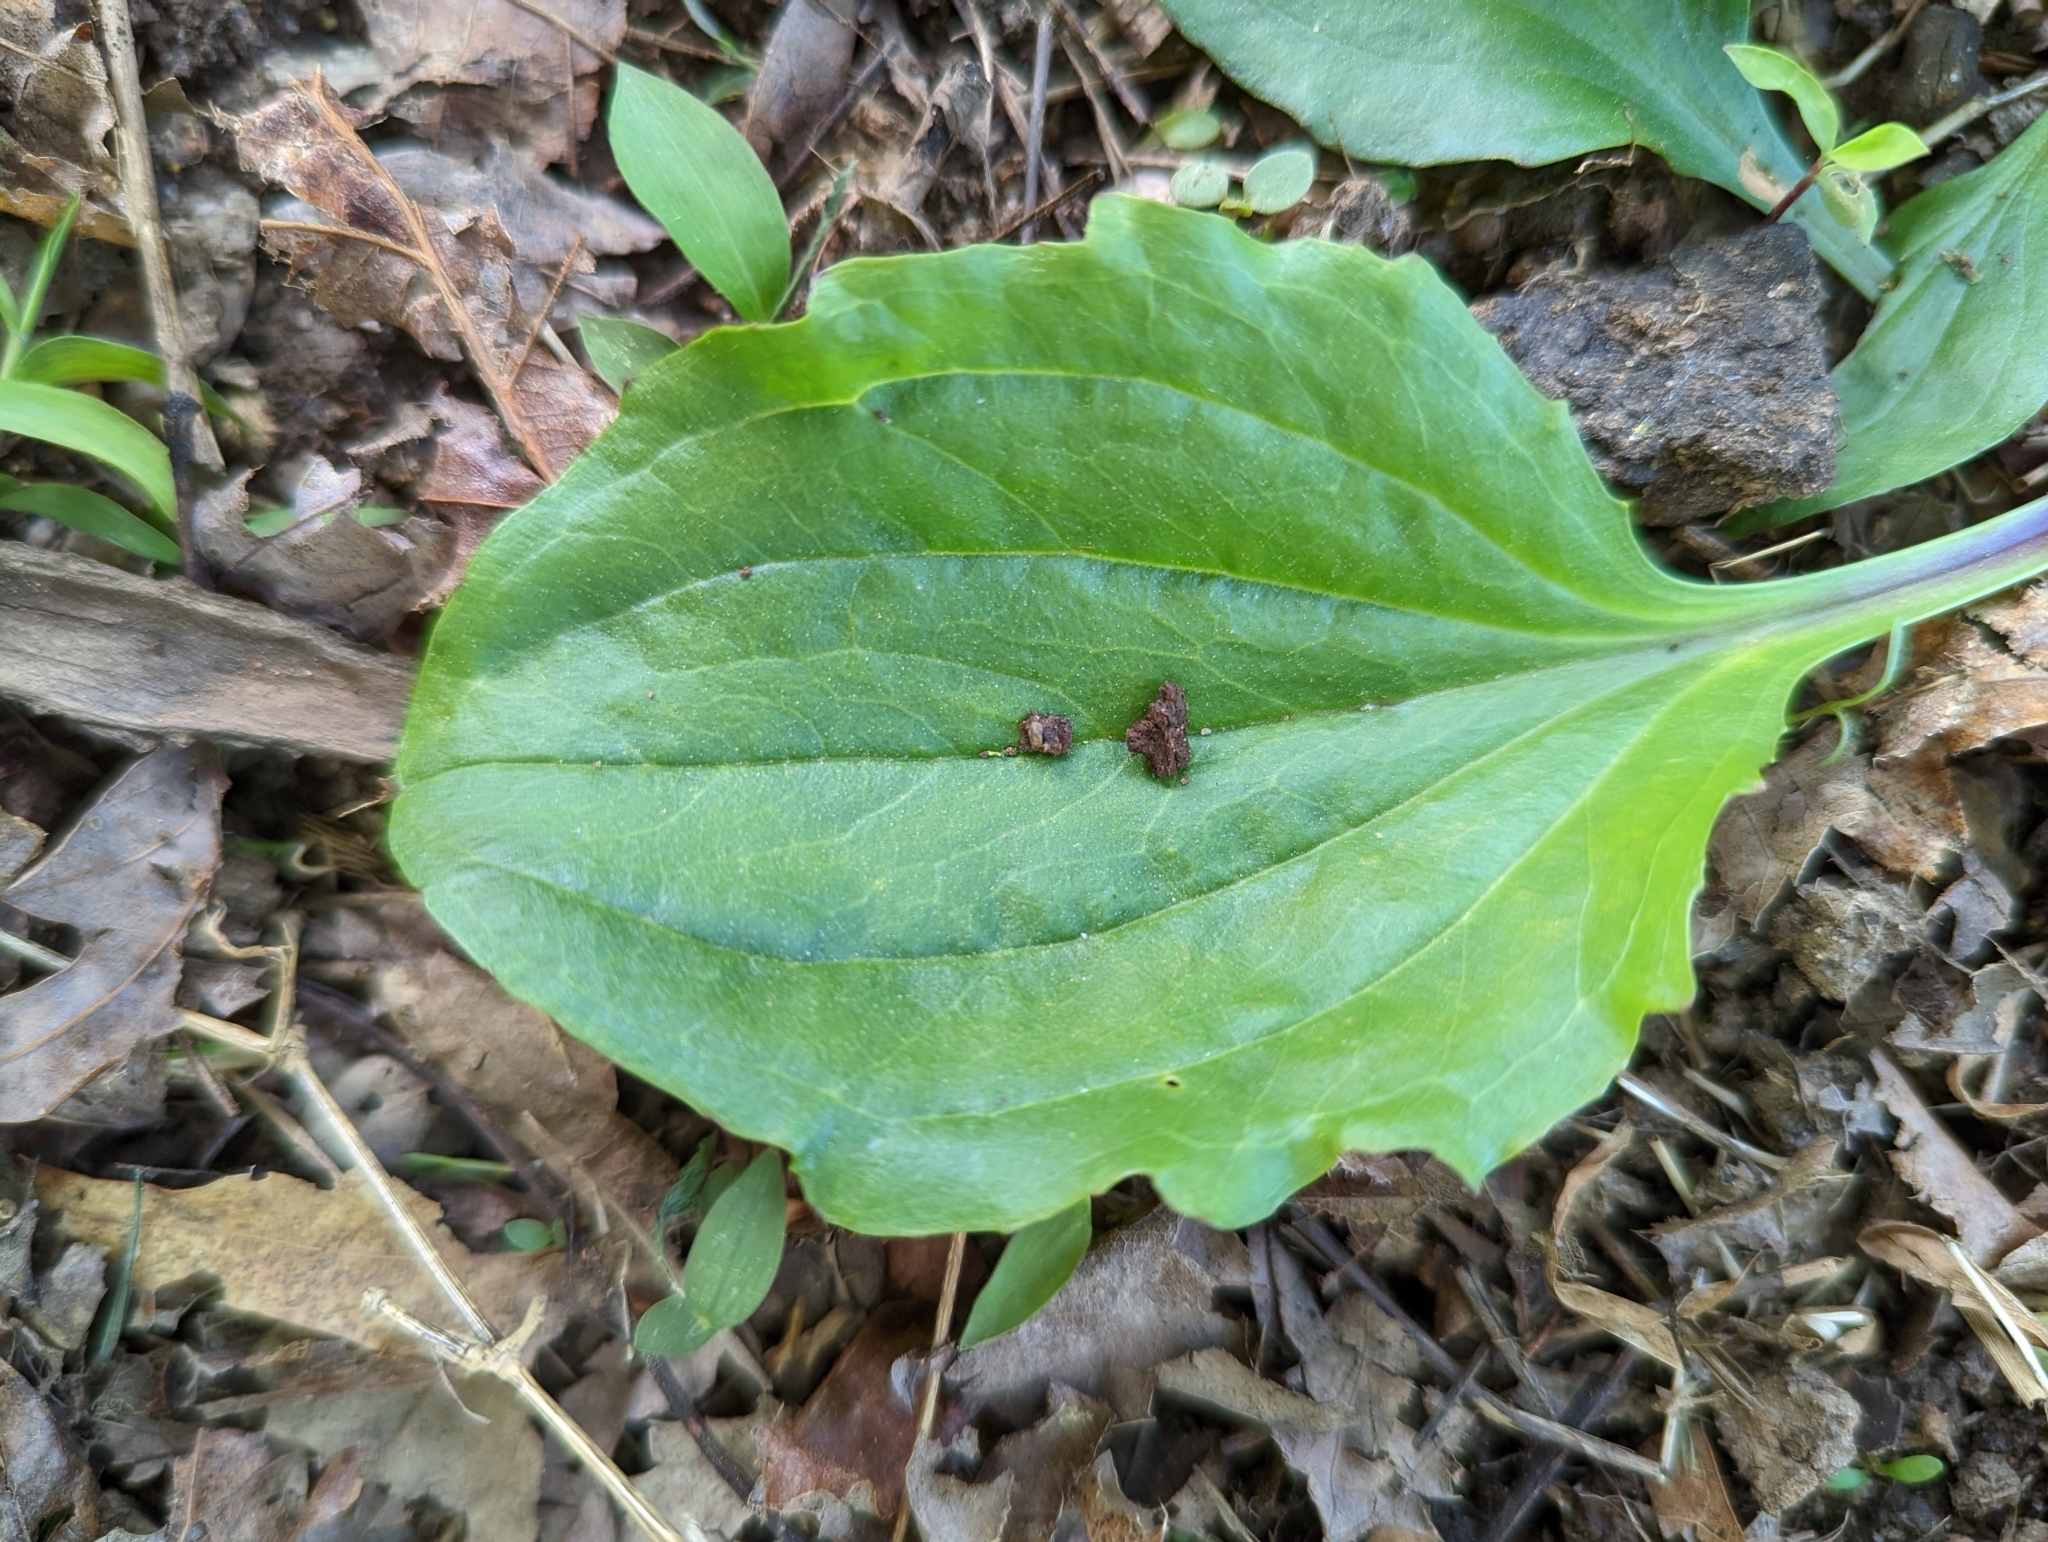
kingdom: Plantae
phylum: Tracheophyta
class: Magnoliopsida
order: Lamiales
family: Plantaginaceae
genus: Plantago
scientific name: Plantago rugelii
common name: American plantain
